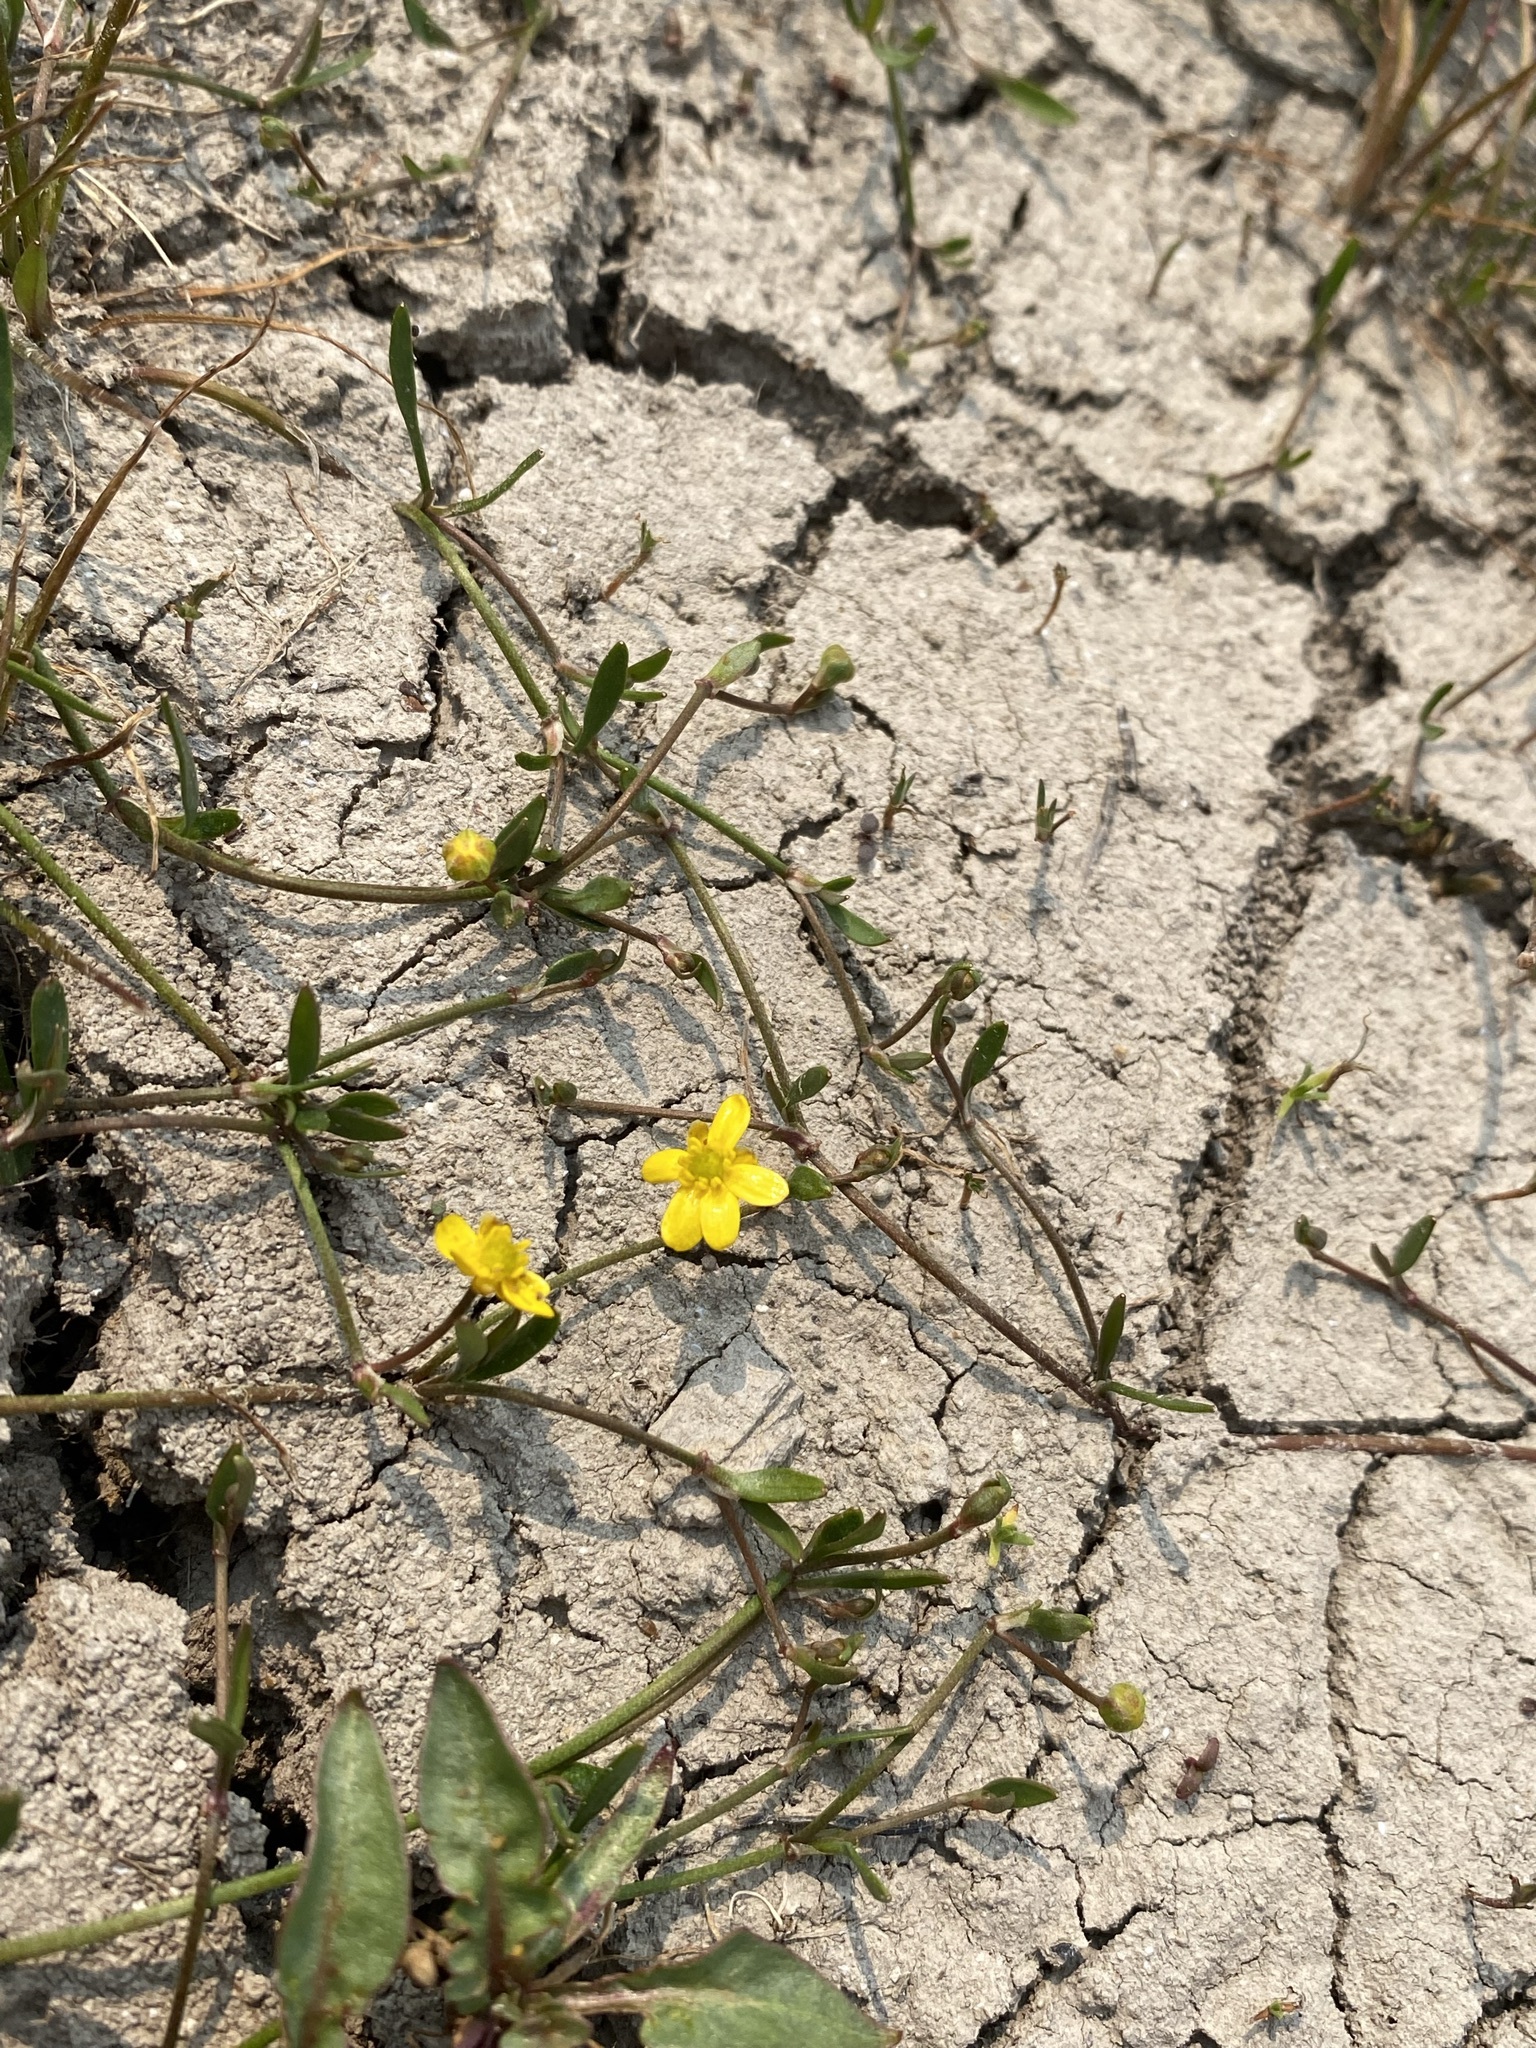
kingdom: Plantae
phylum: Tracheophyta
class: Magnoliopsida
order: Ranunculales
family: Ranunculaceae
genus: Ranunculus
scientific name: Ranunculus flammula
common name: Lesser spearwort
